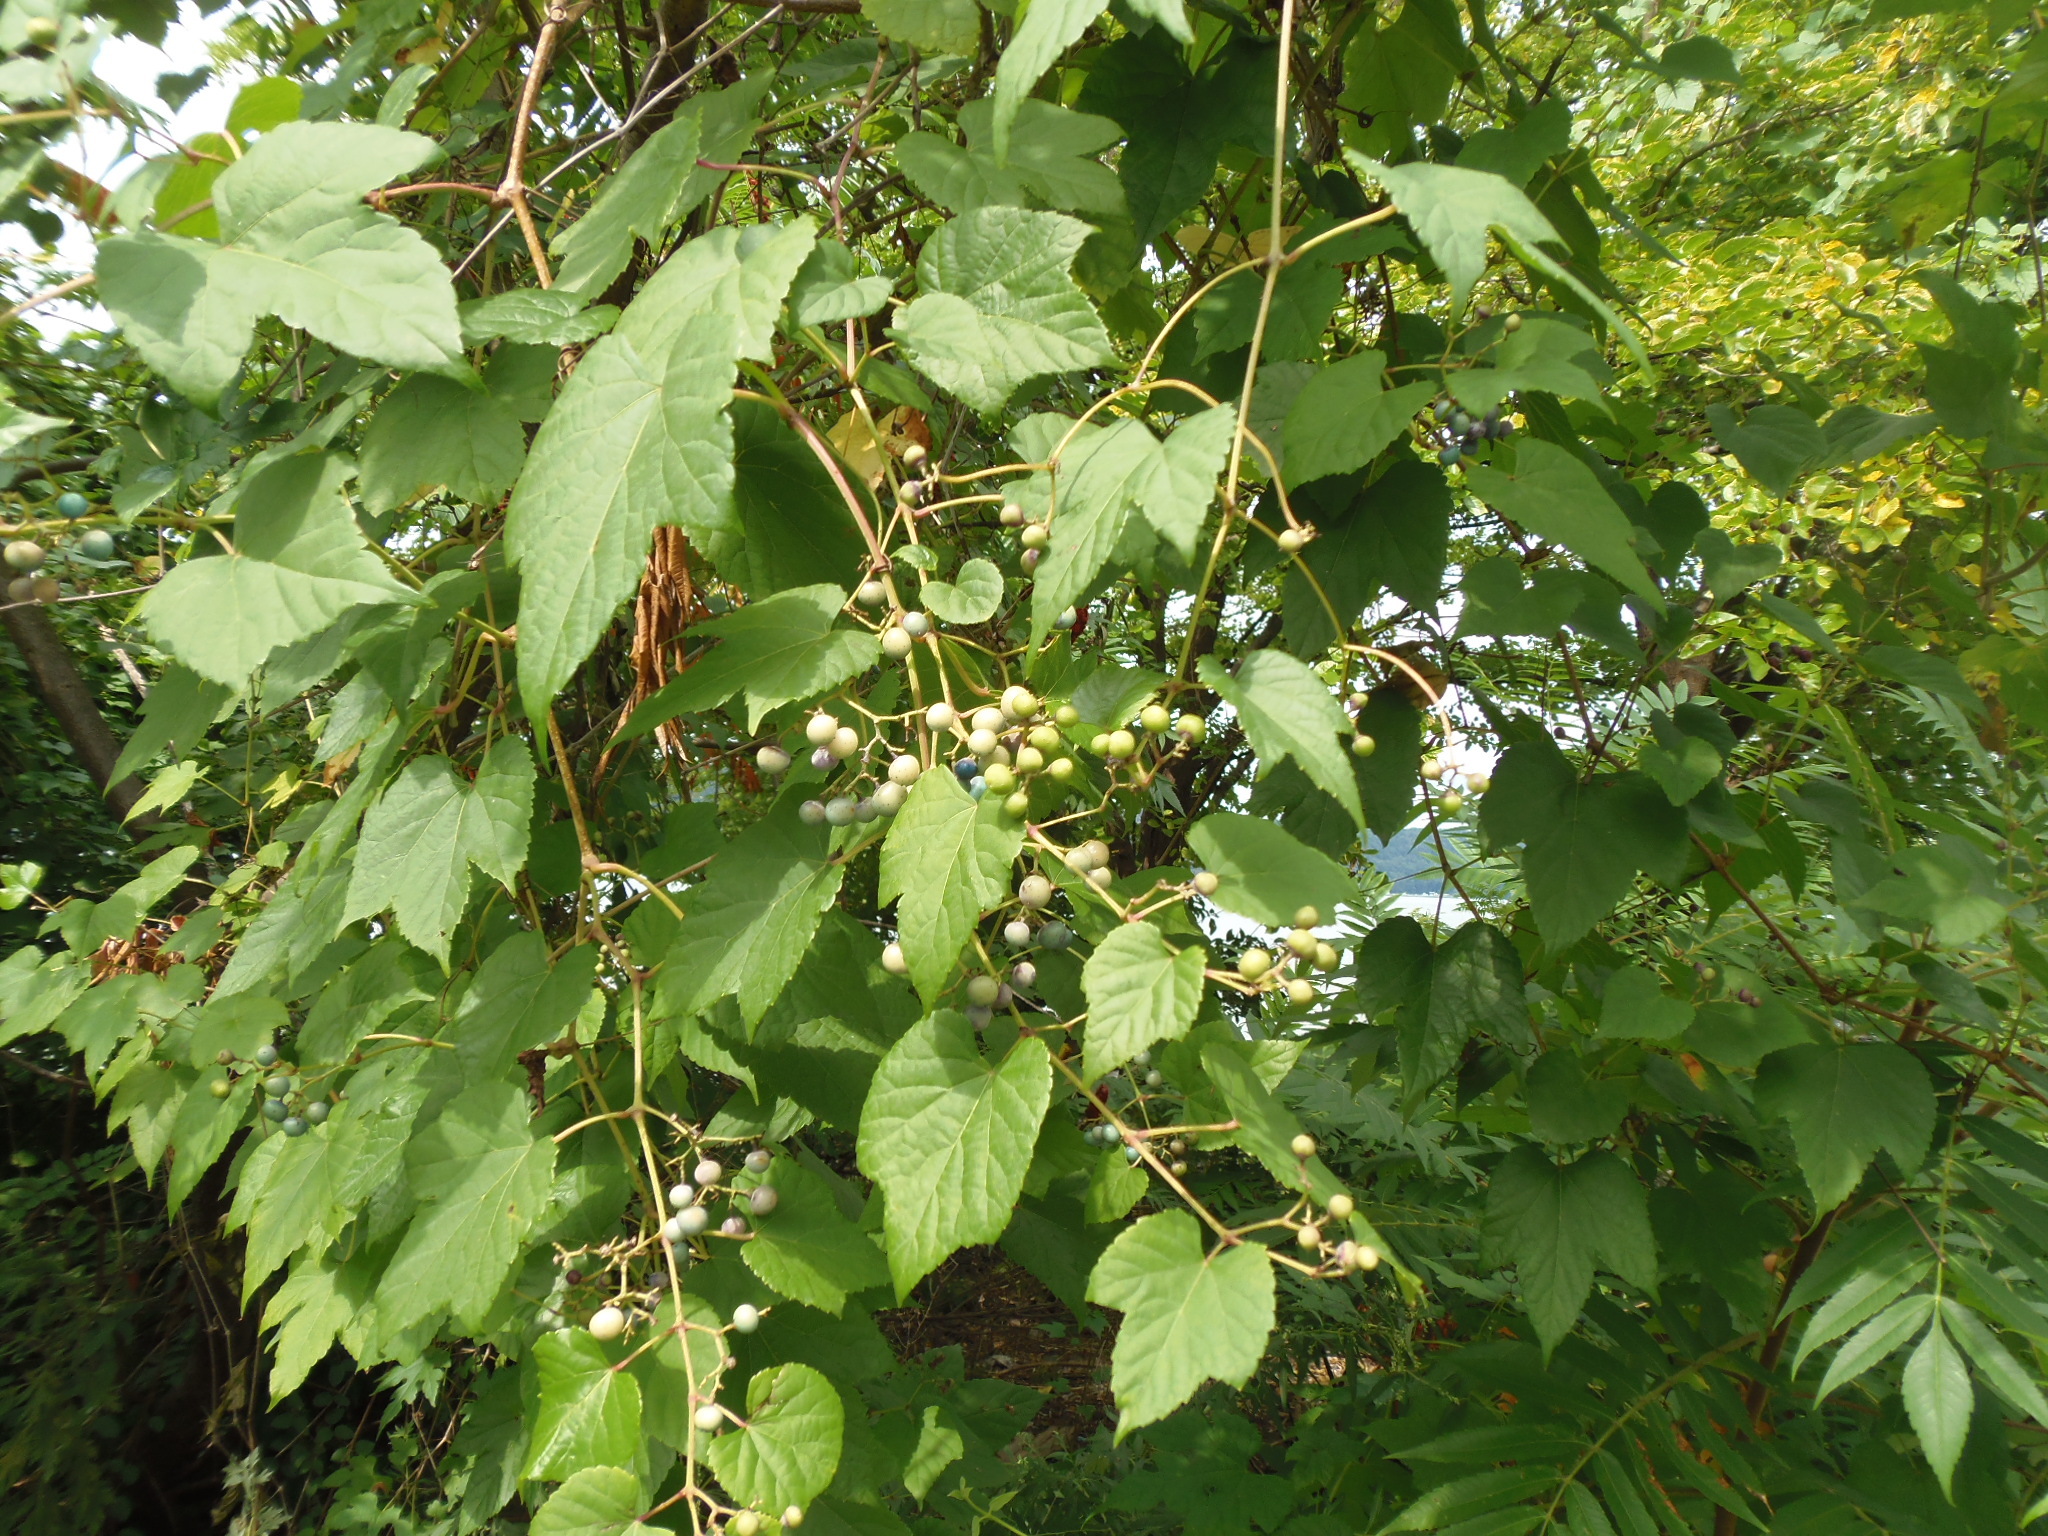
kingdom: Plantae
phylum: Tracheophyta
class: Magnoliopsida
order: Vitales
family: Vitaceae
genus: Ampelopsis
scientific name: Ampelopsis glandulosa
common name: Amur peppervine
